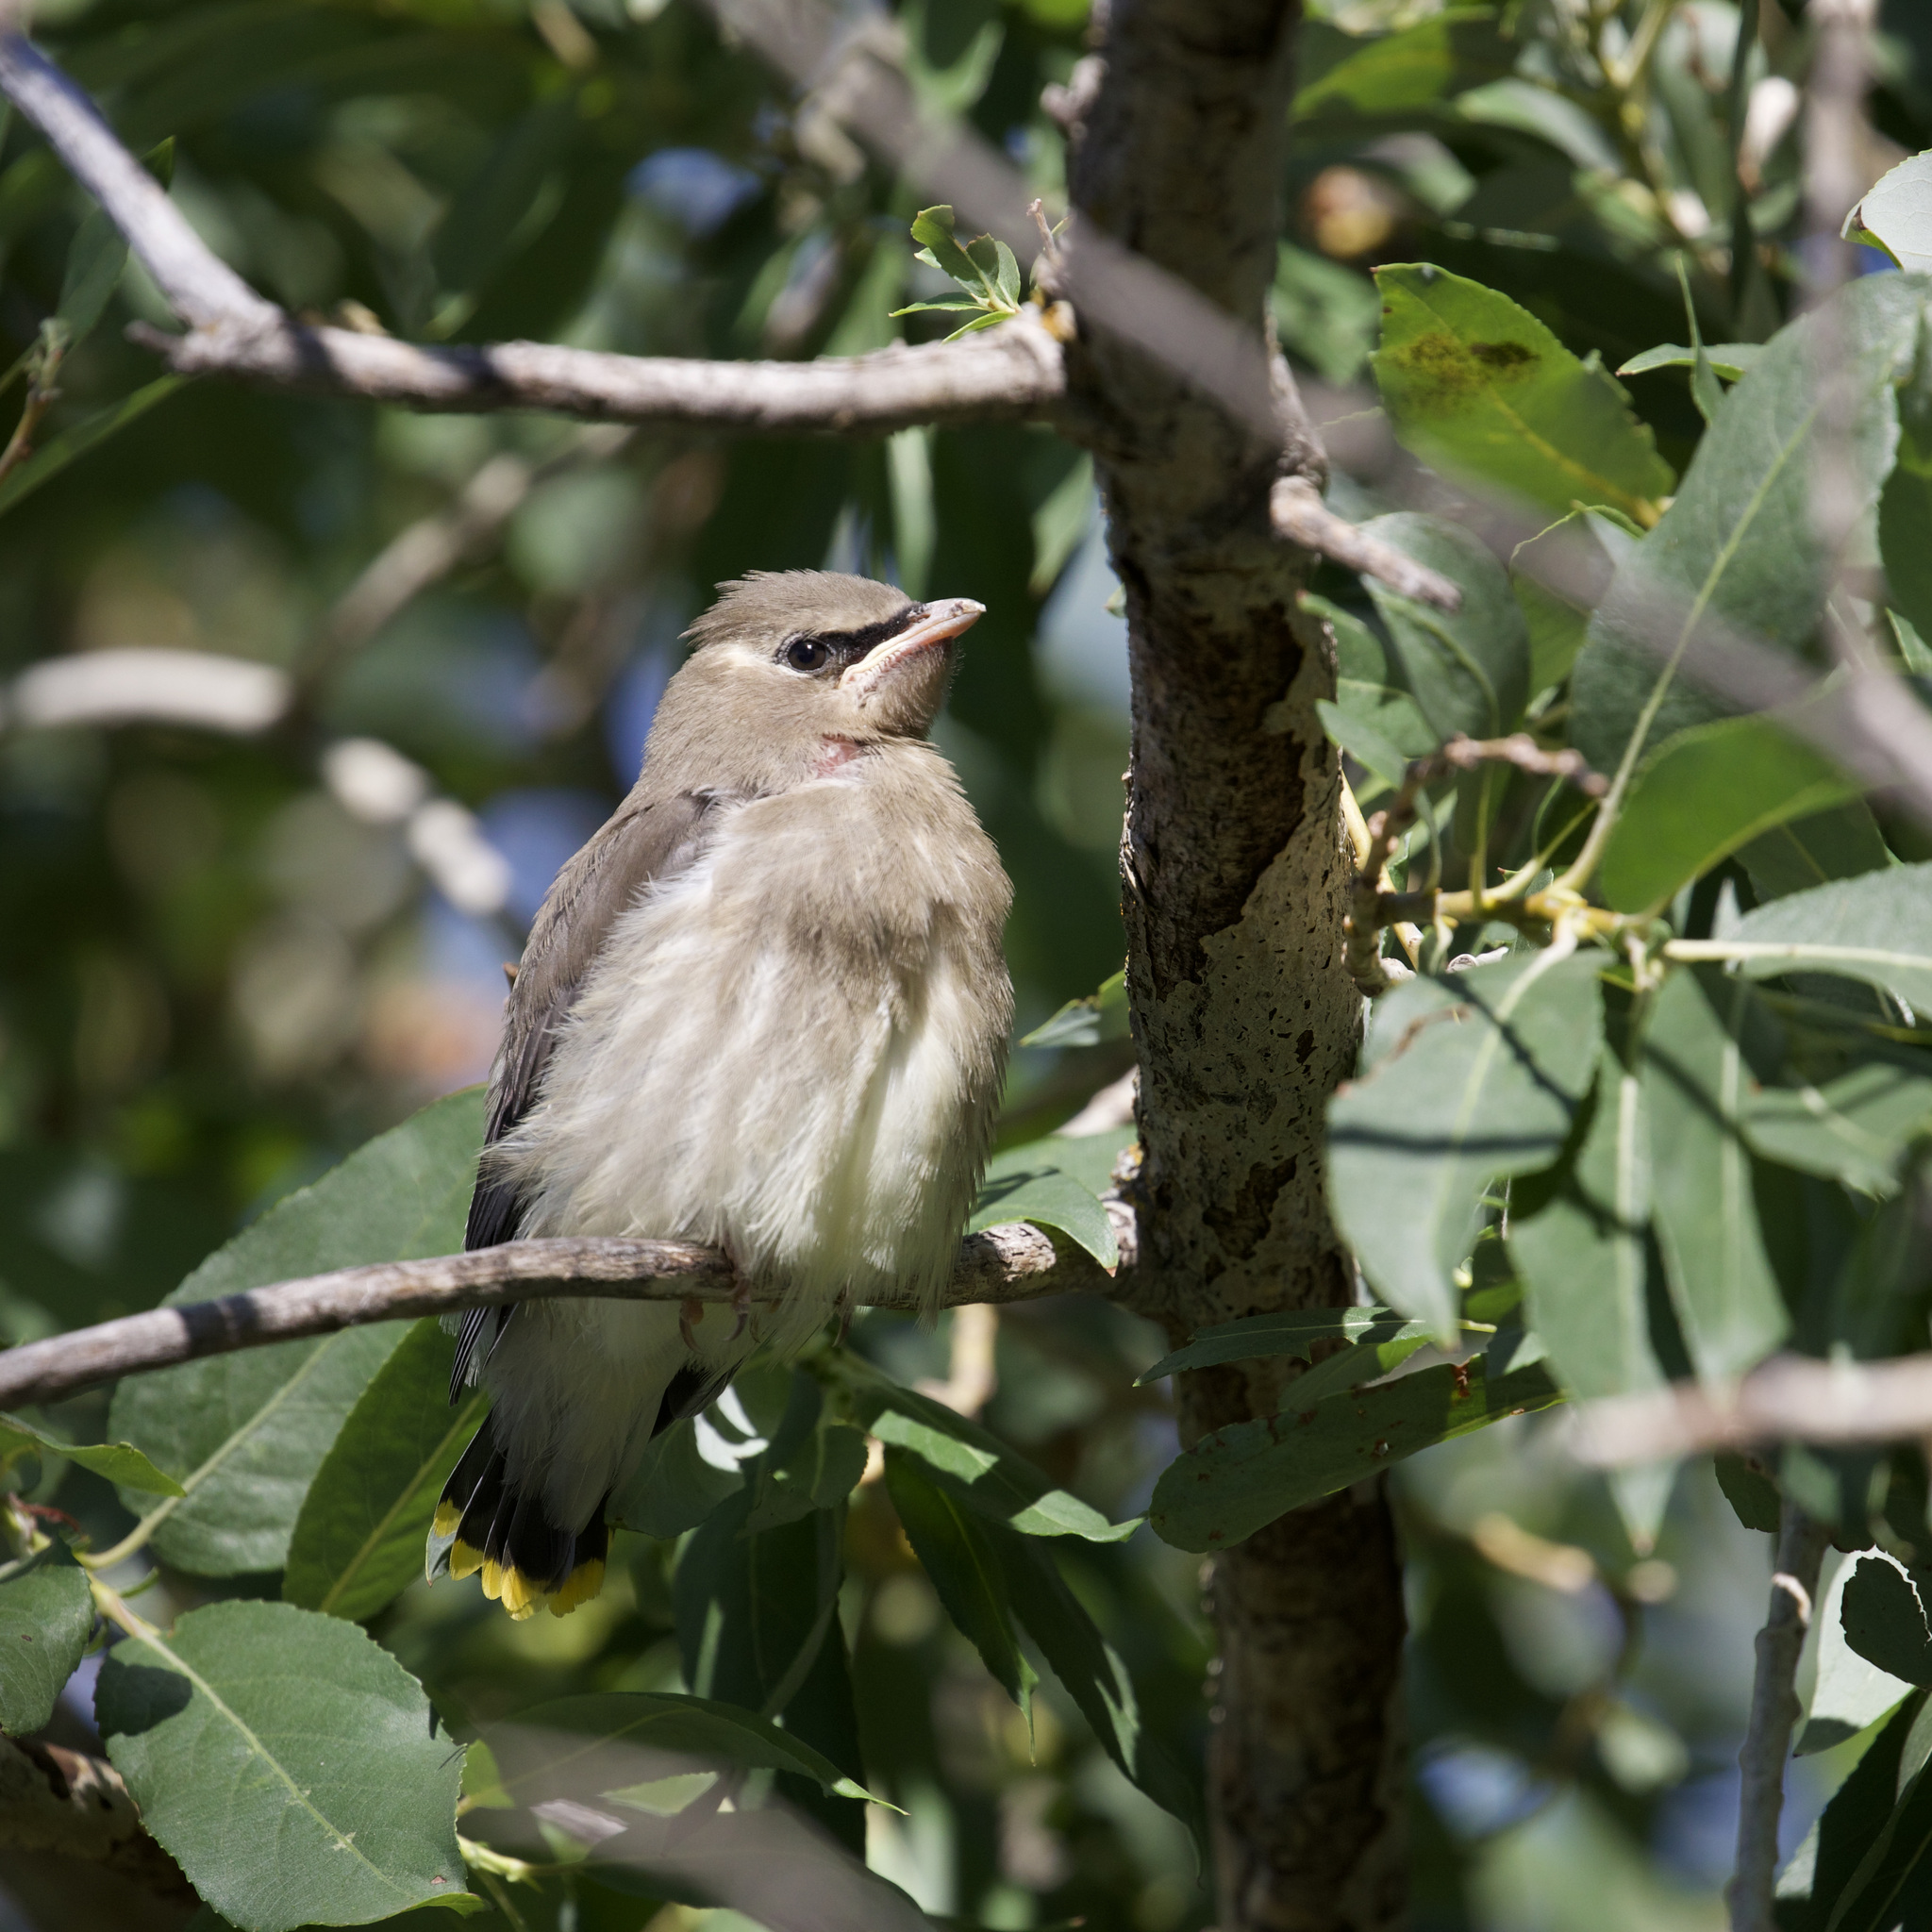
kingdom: Animalia
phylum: Chordata
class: Aves
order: Passeriformes
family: Bombycillidae
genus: Bombycilla
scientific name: Bombycilla cedrorum
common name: Cedar waxwing
